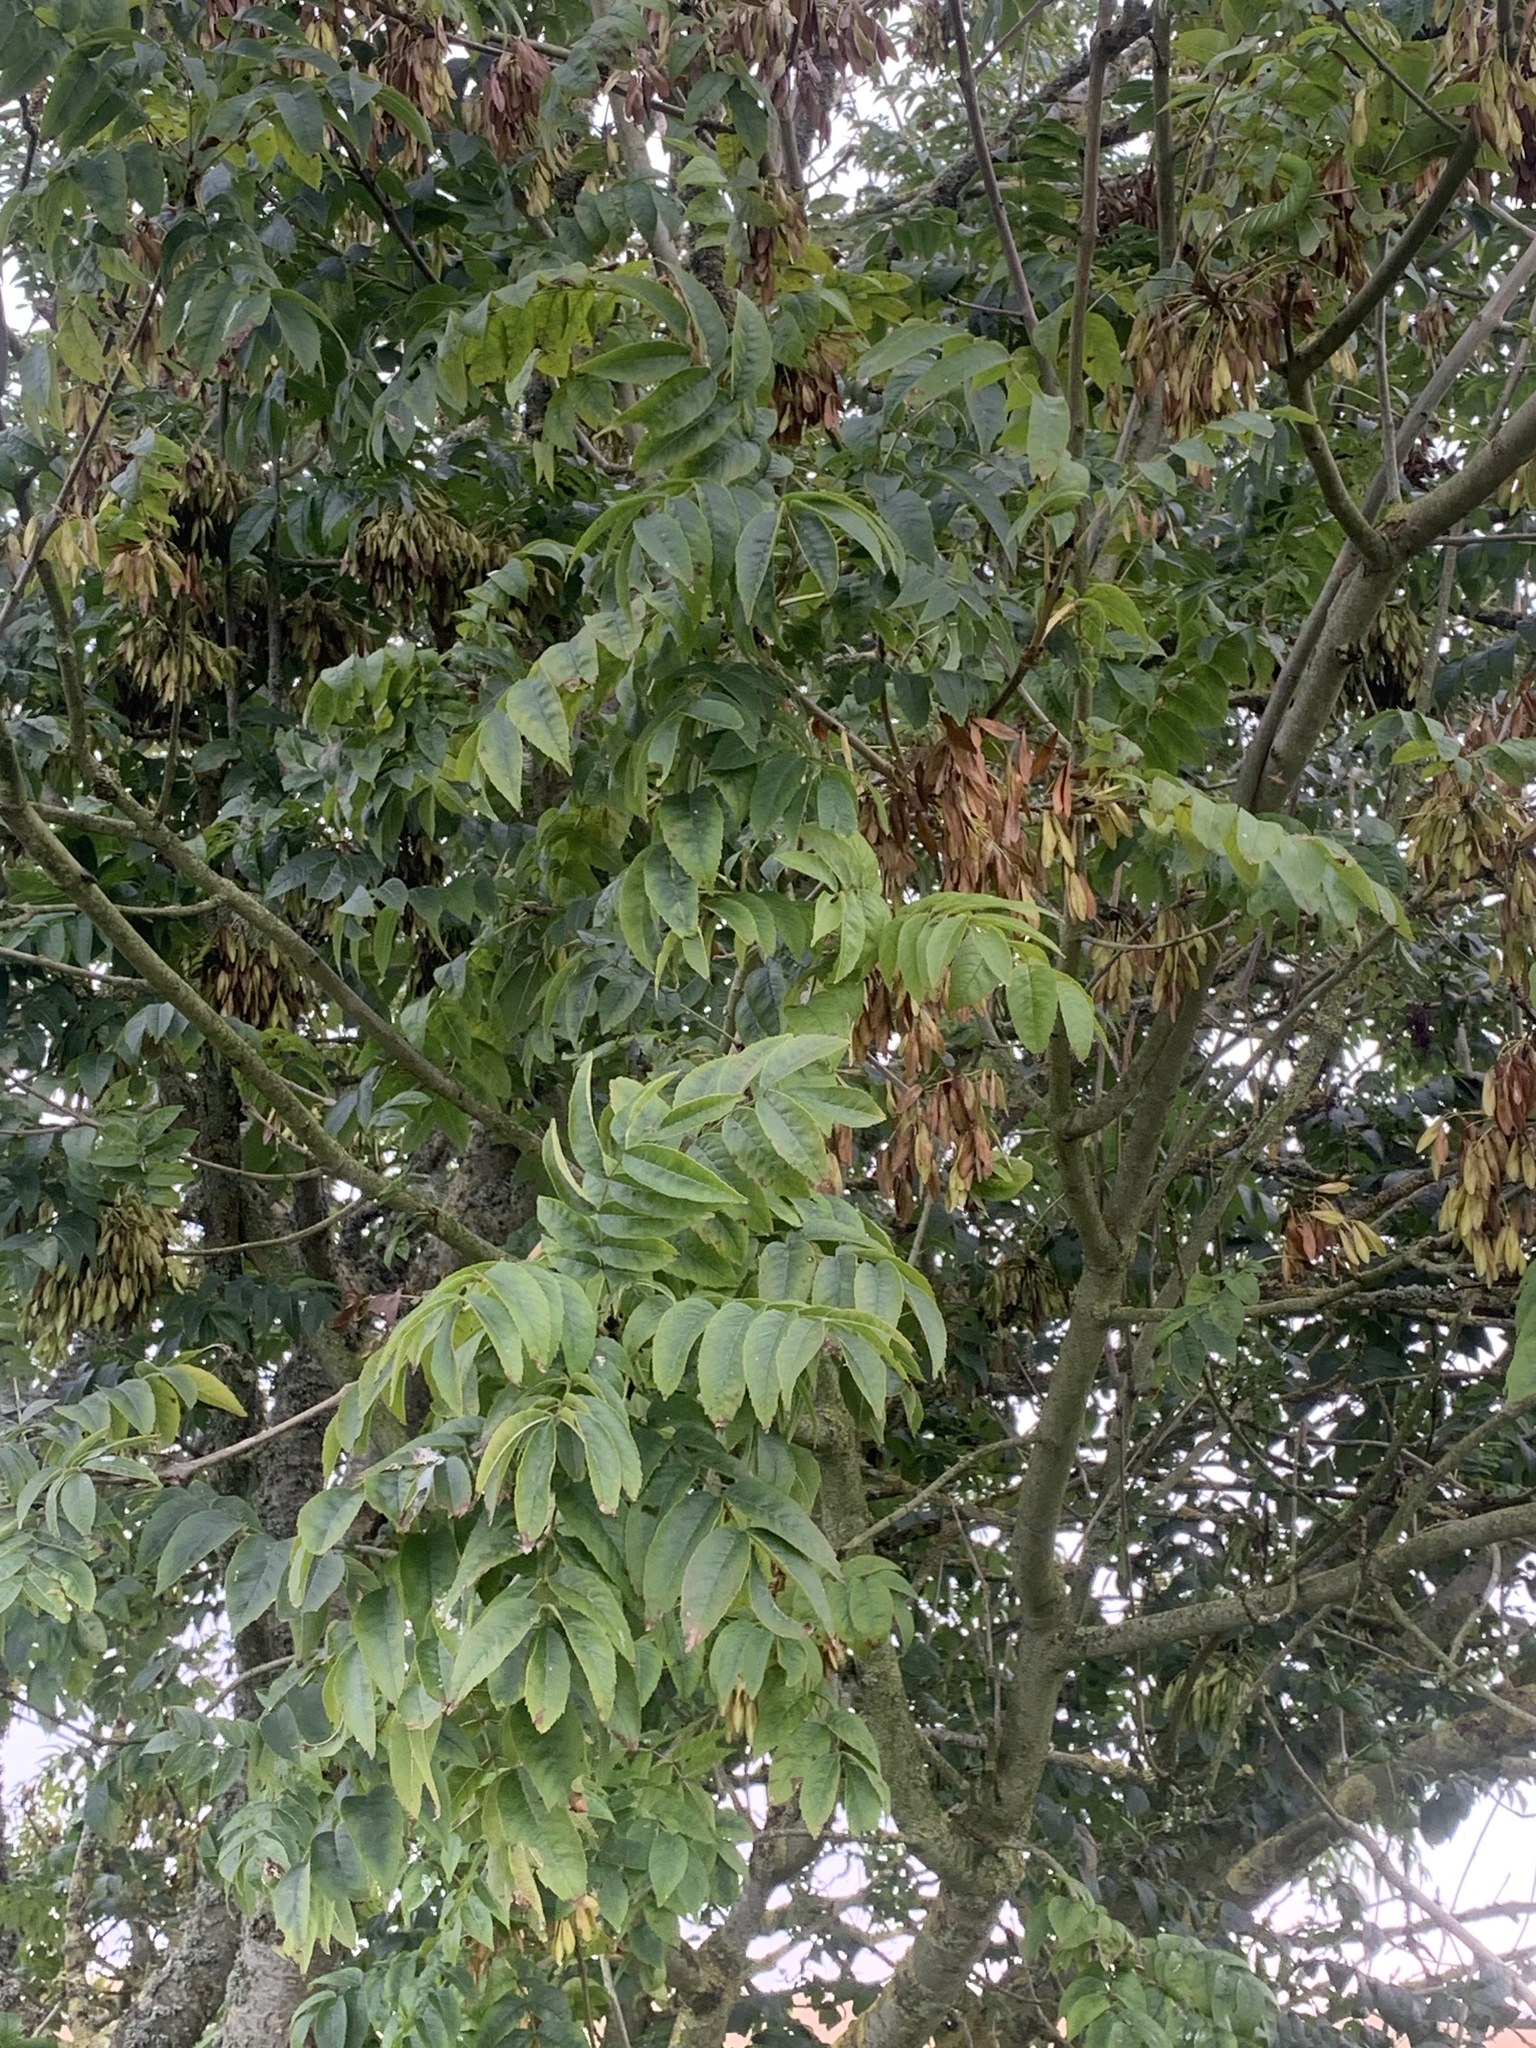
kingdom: Plantae
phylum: Tracheophyta
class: Magnoliopsida
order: Lamiales
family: Oleaceae
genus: Fraxinus
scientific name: Fraxinus excelsior
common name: European ash
